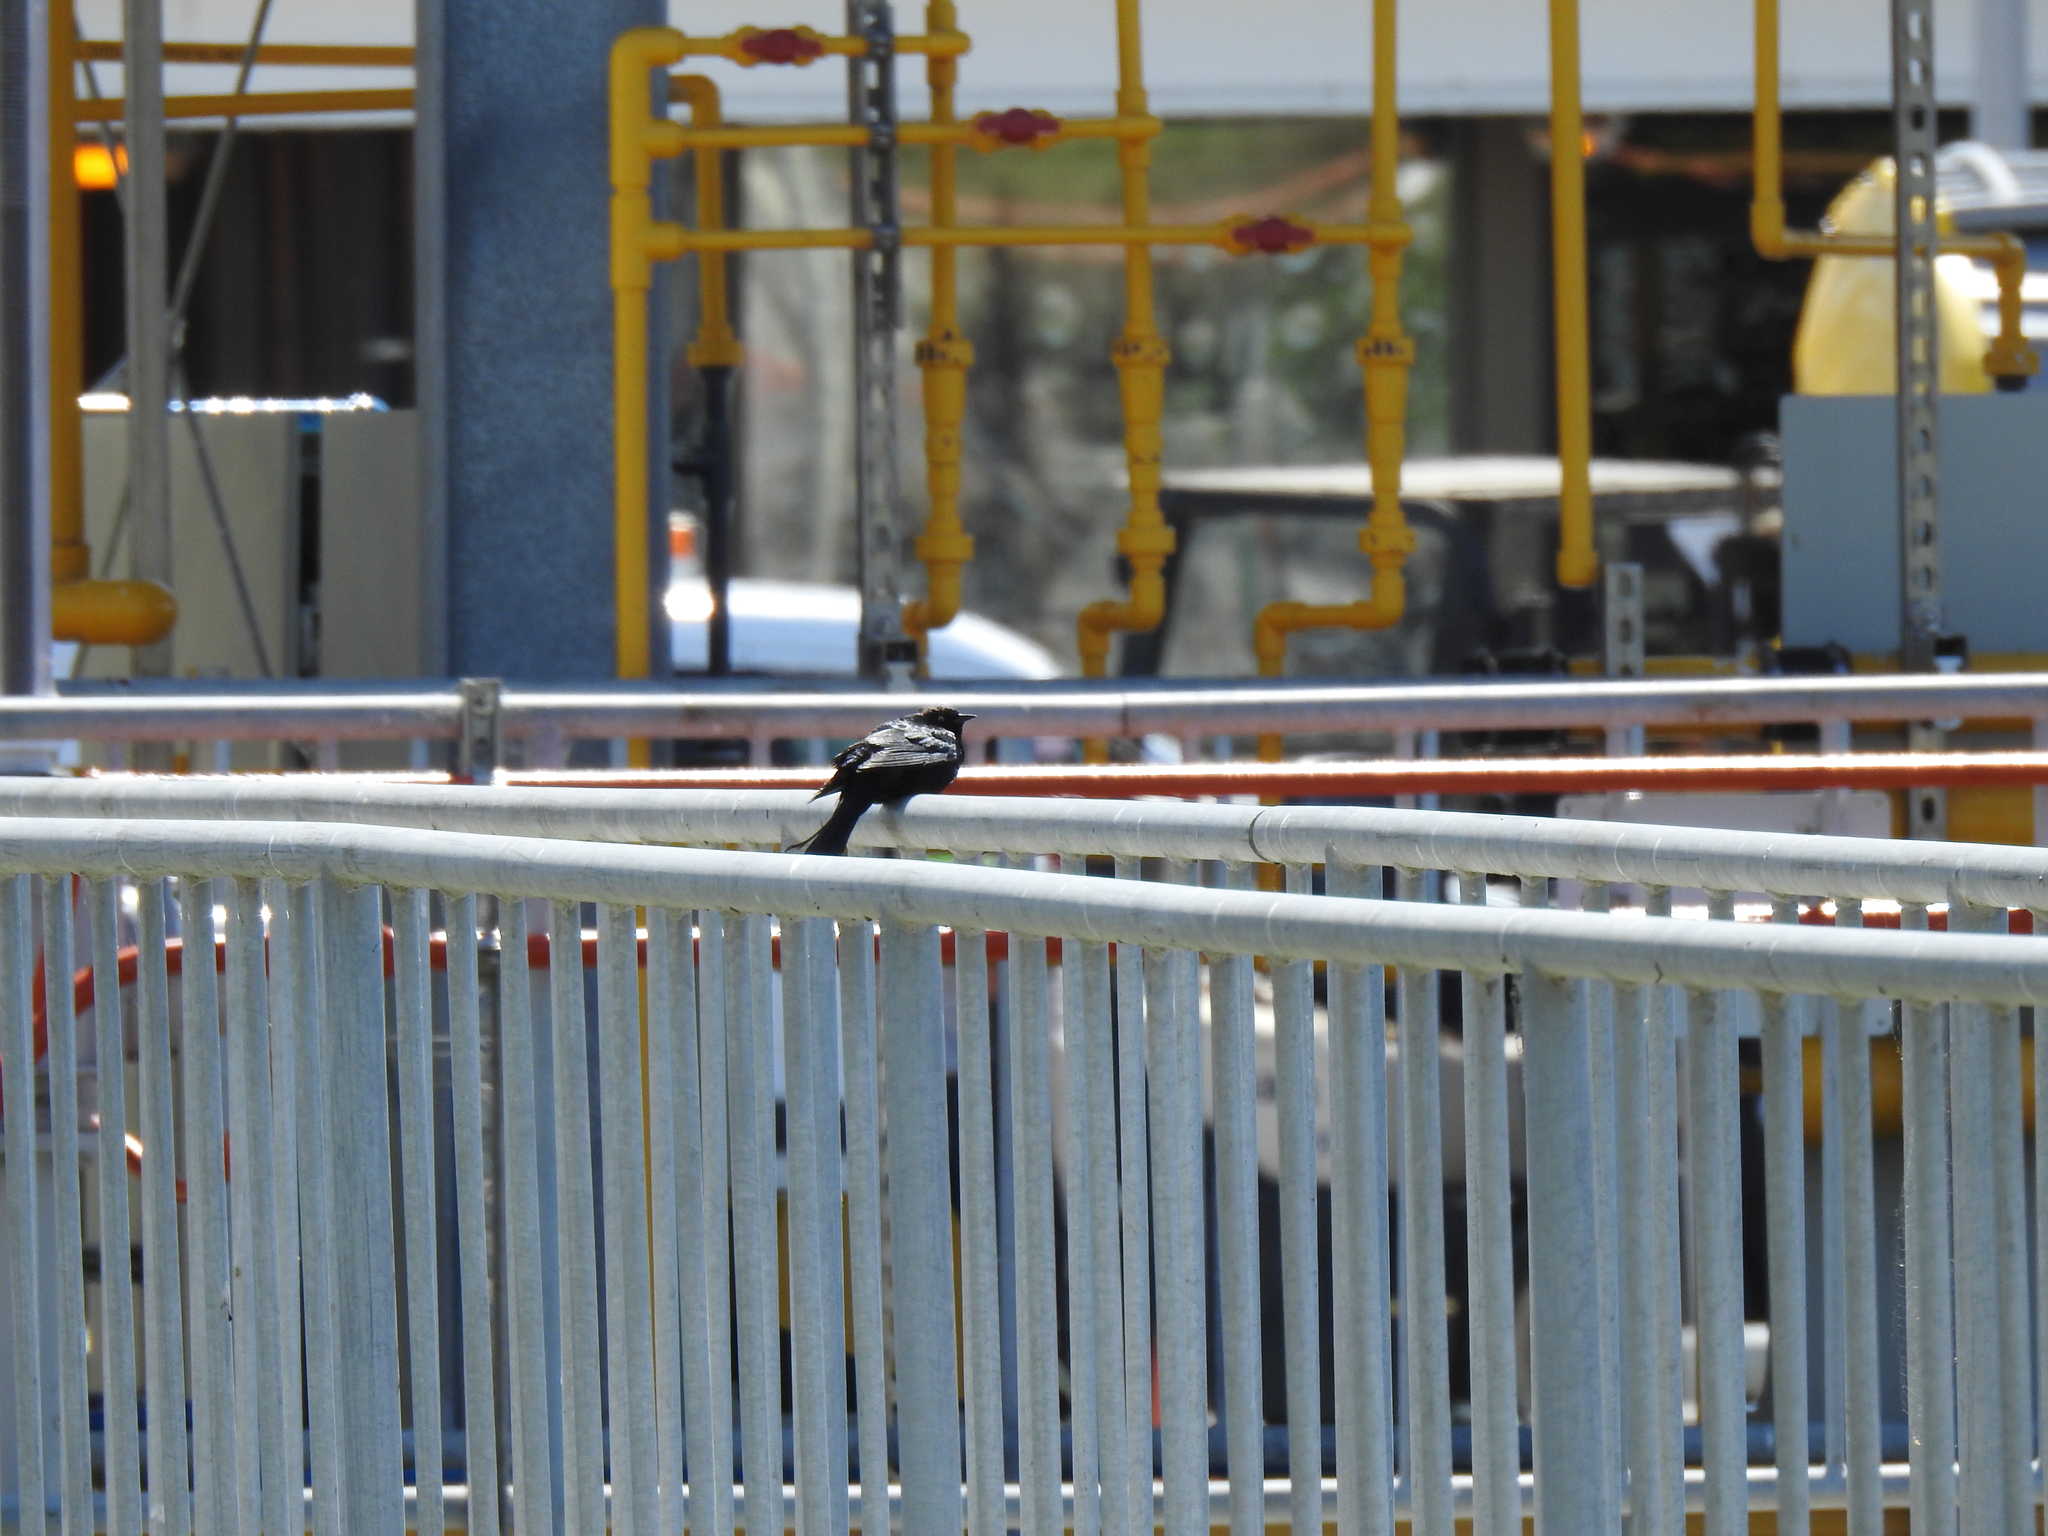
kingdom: Animalia
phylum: Chordata
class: Aves
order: Passeriformes
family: Icteridae
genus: Euphagus
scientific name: Euphagus cyanocephalus
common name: Brewer's blackbird
